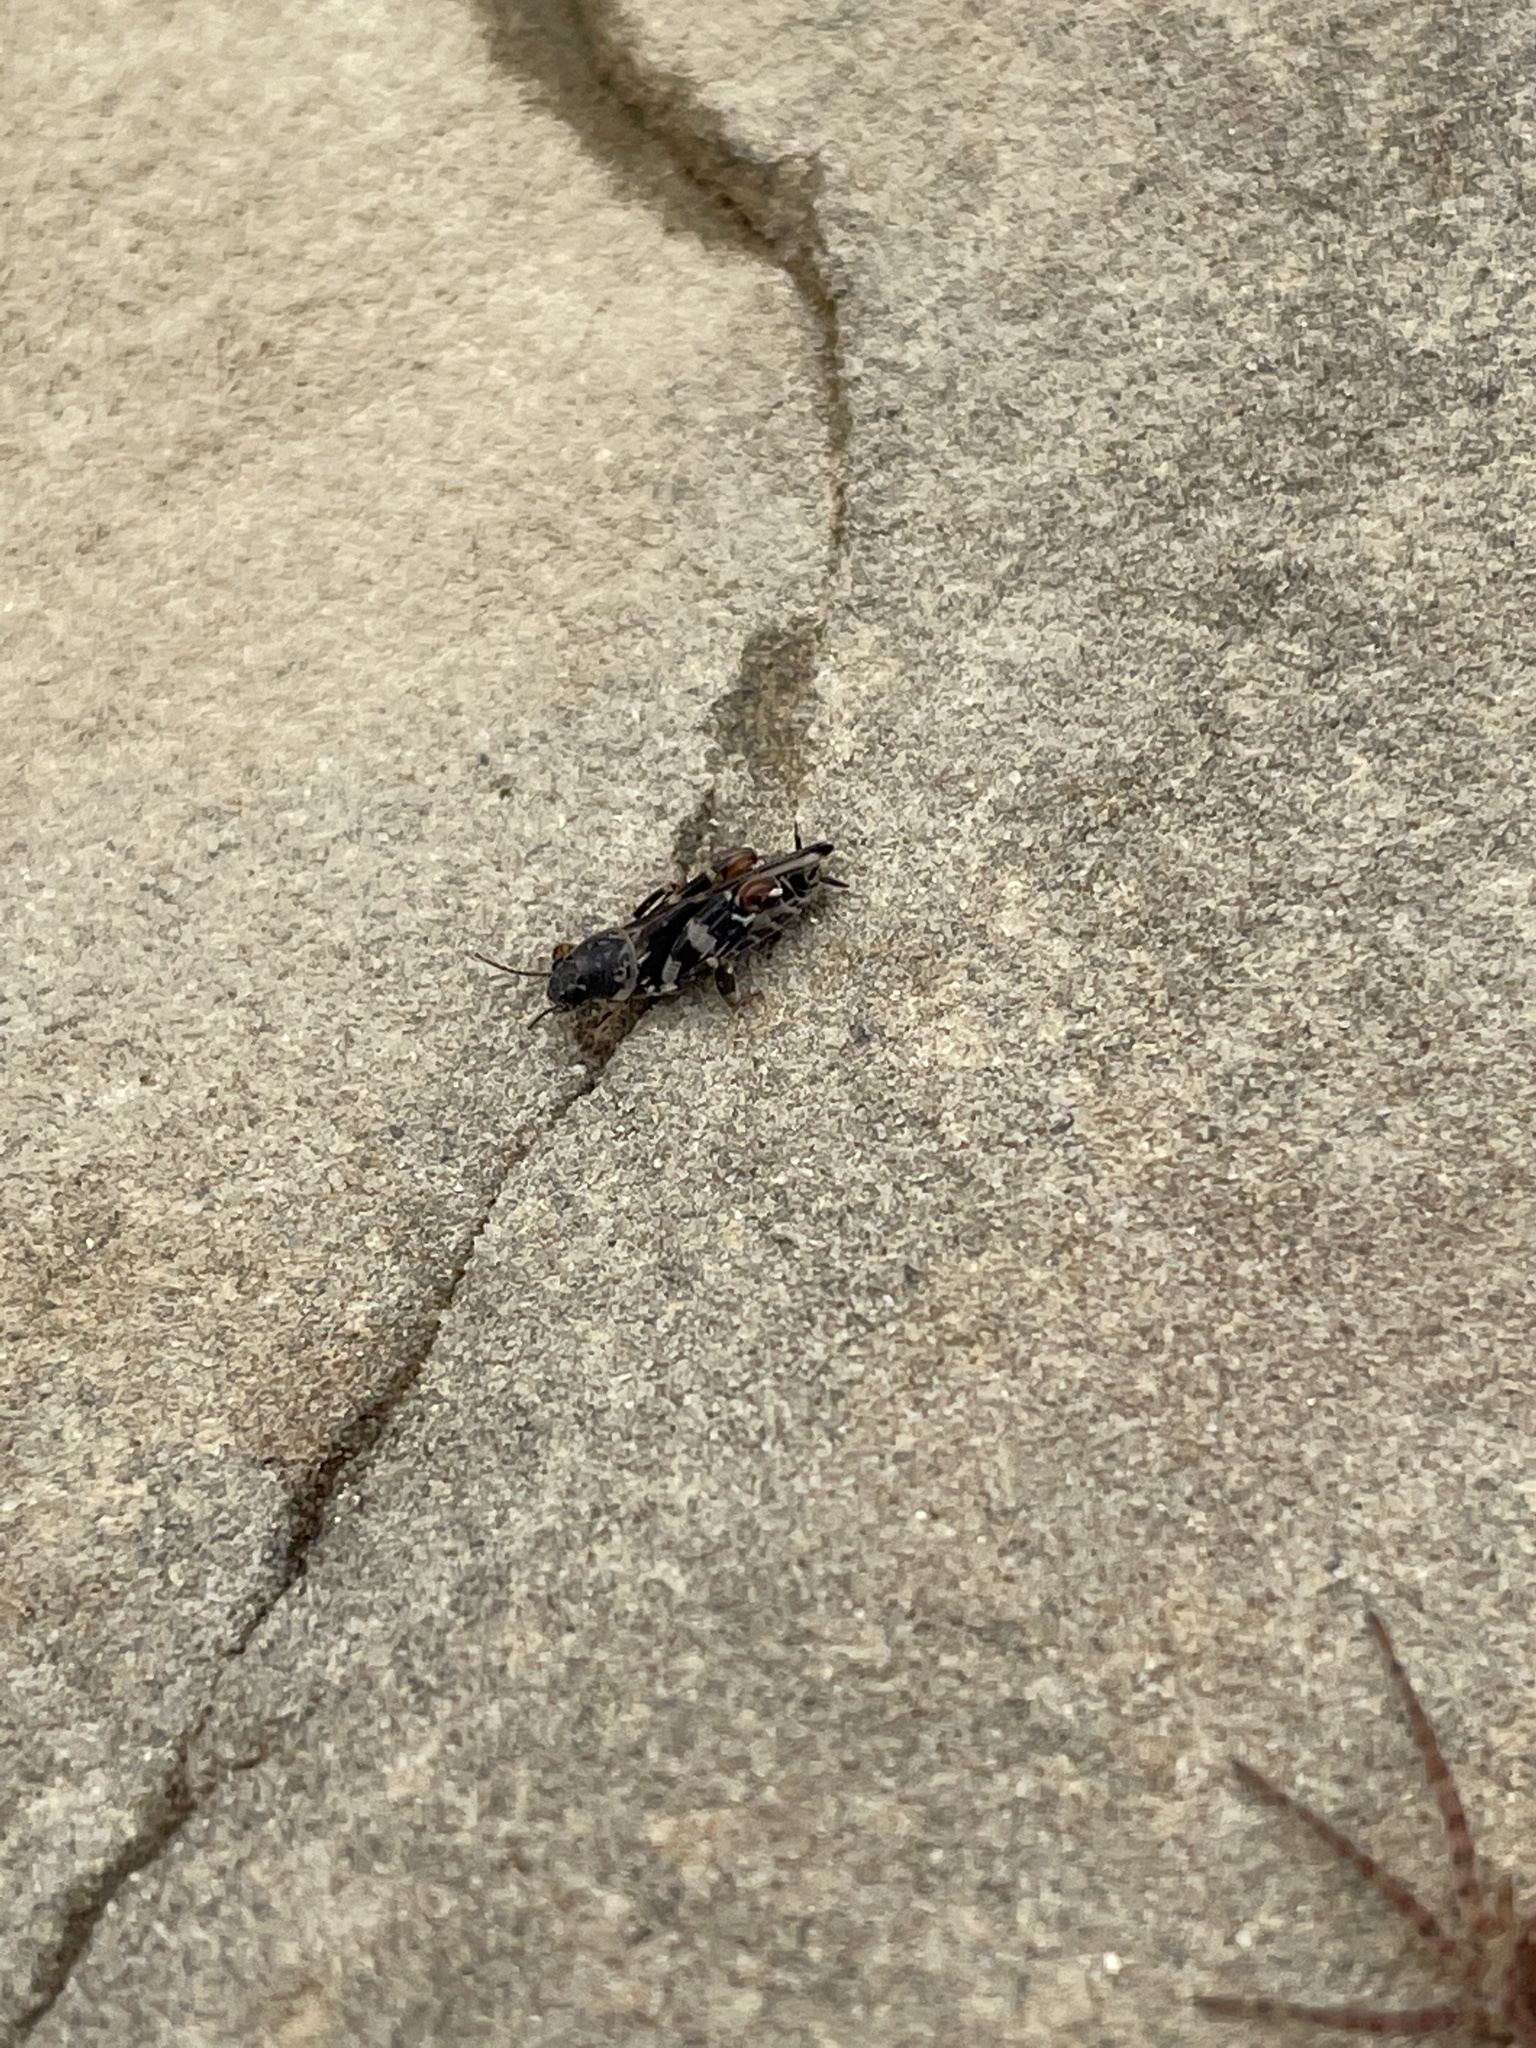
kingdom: Animalia
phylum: Arthropoda
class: Insecta
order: Orthoptera
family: Tridactylidae
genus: Ellipes
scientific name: Ellipes minuta
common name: Minute pygmy locust
